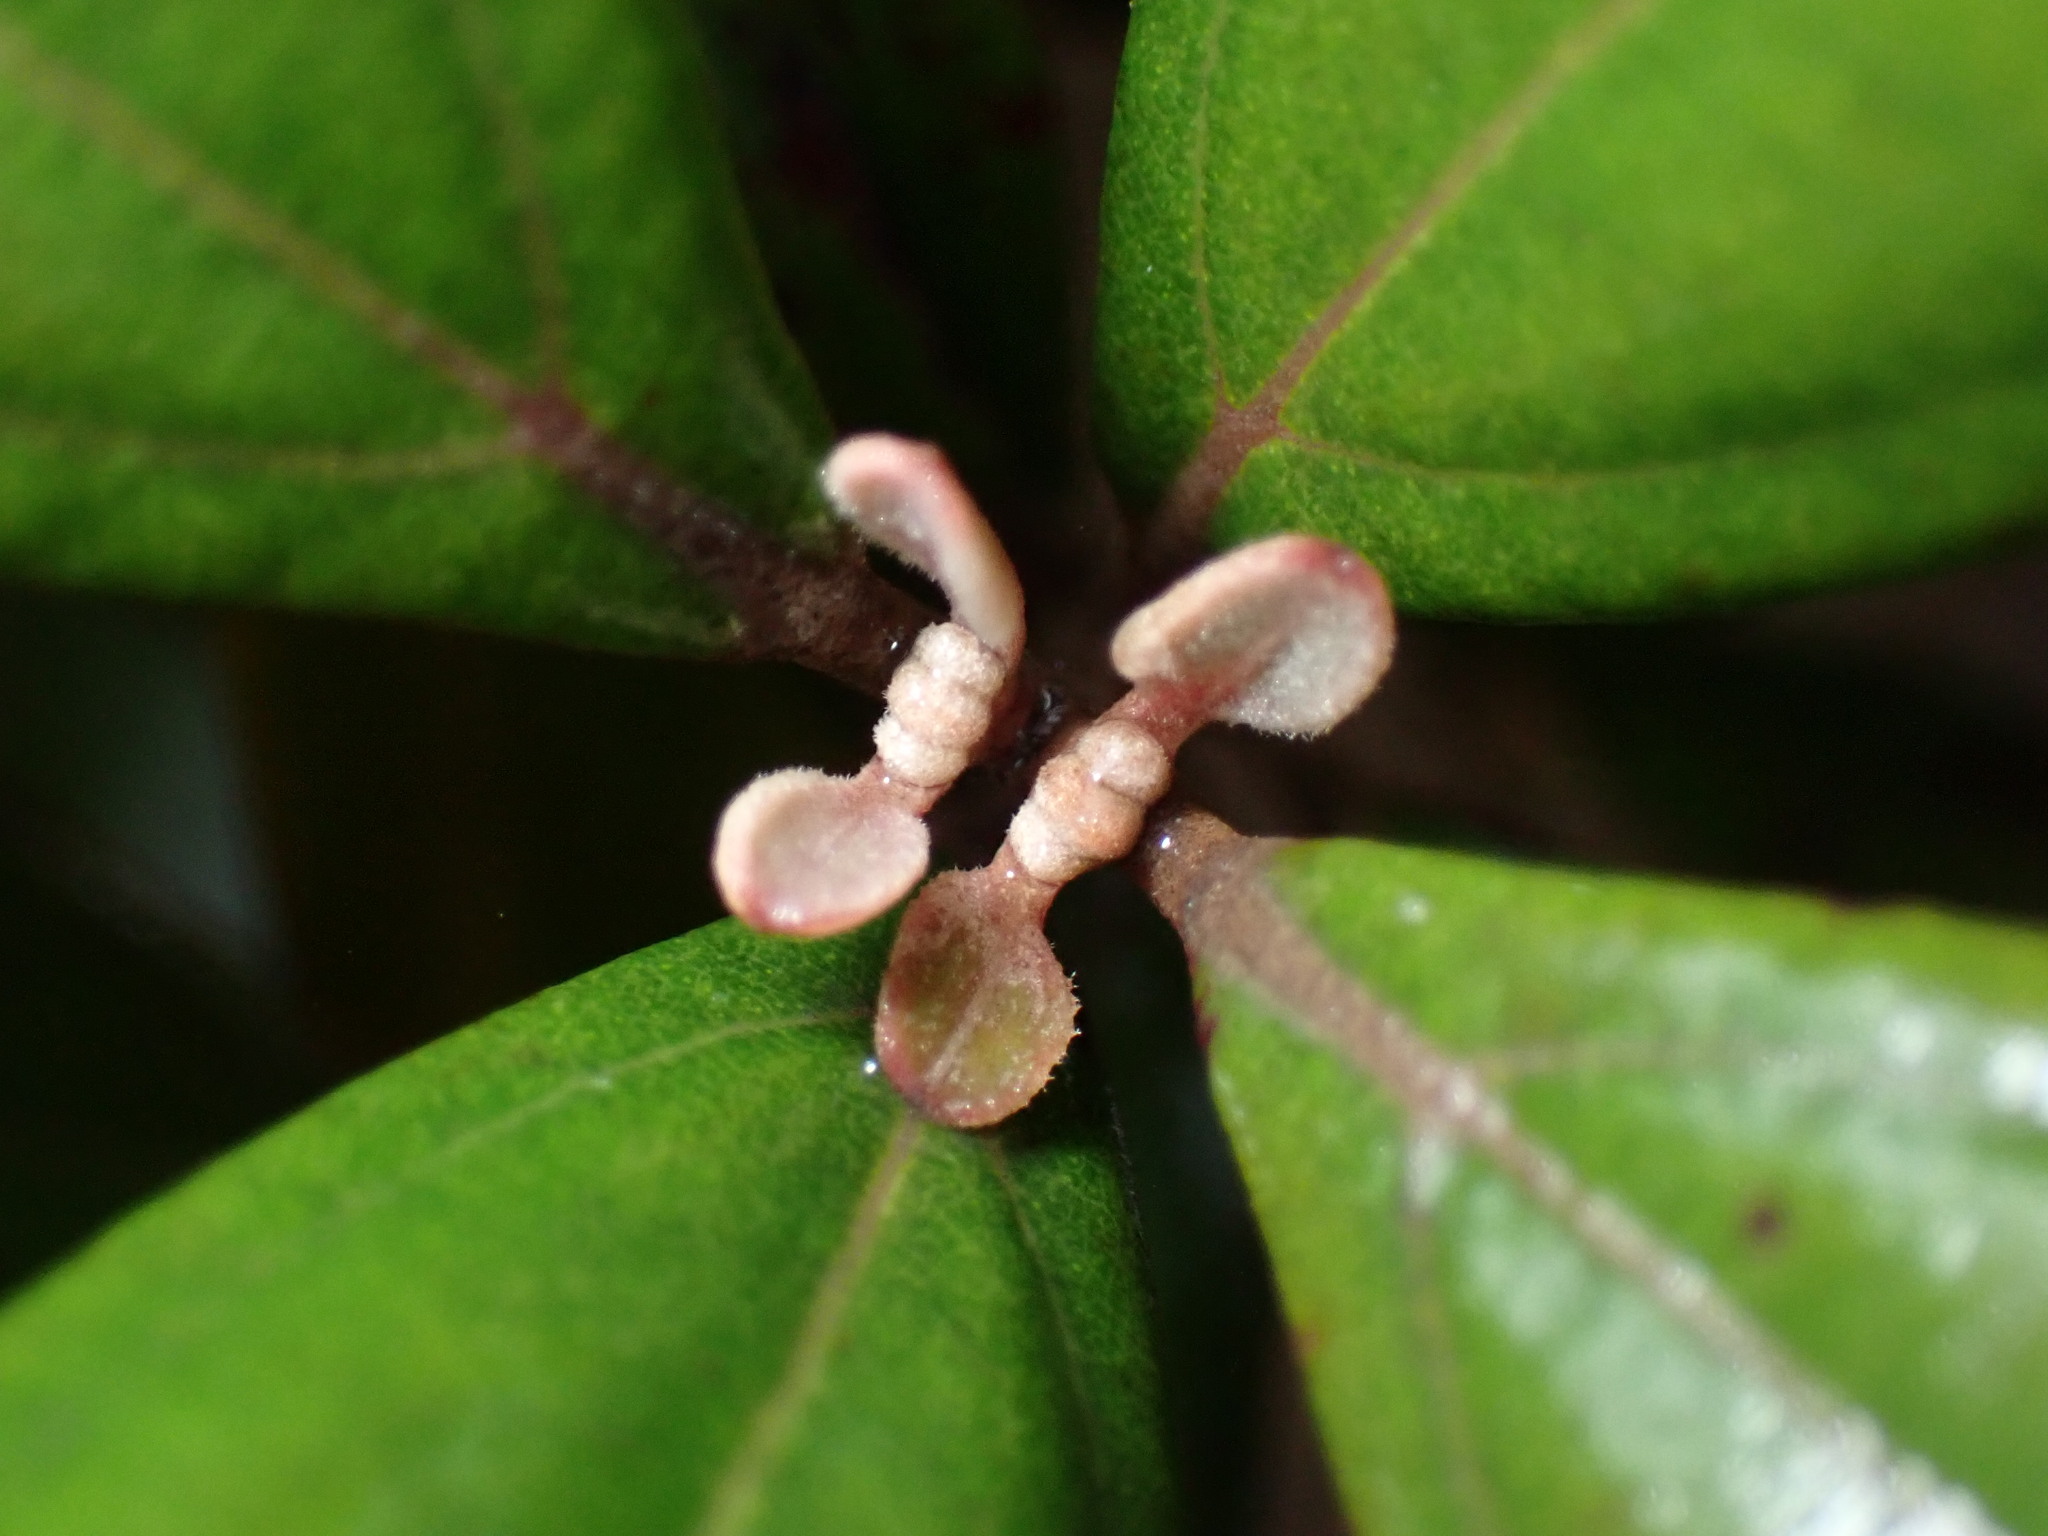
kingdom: Plantae
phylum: Tracheophyta
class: Magnoliopsida
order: Myrtales
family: Myrtaceae
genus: Rhodomyrtus
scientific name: Rhodomyrtus tomentosa
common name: Rose myrtle
